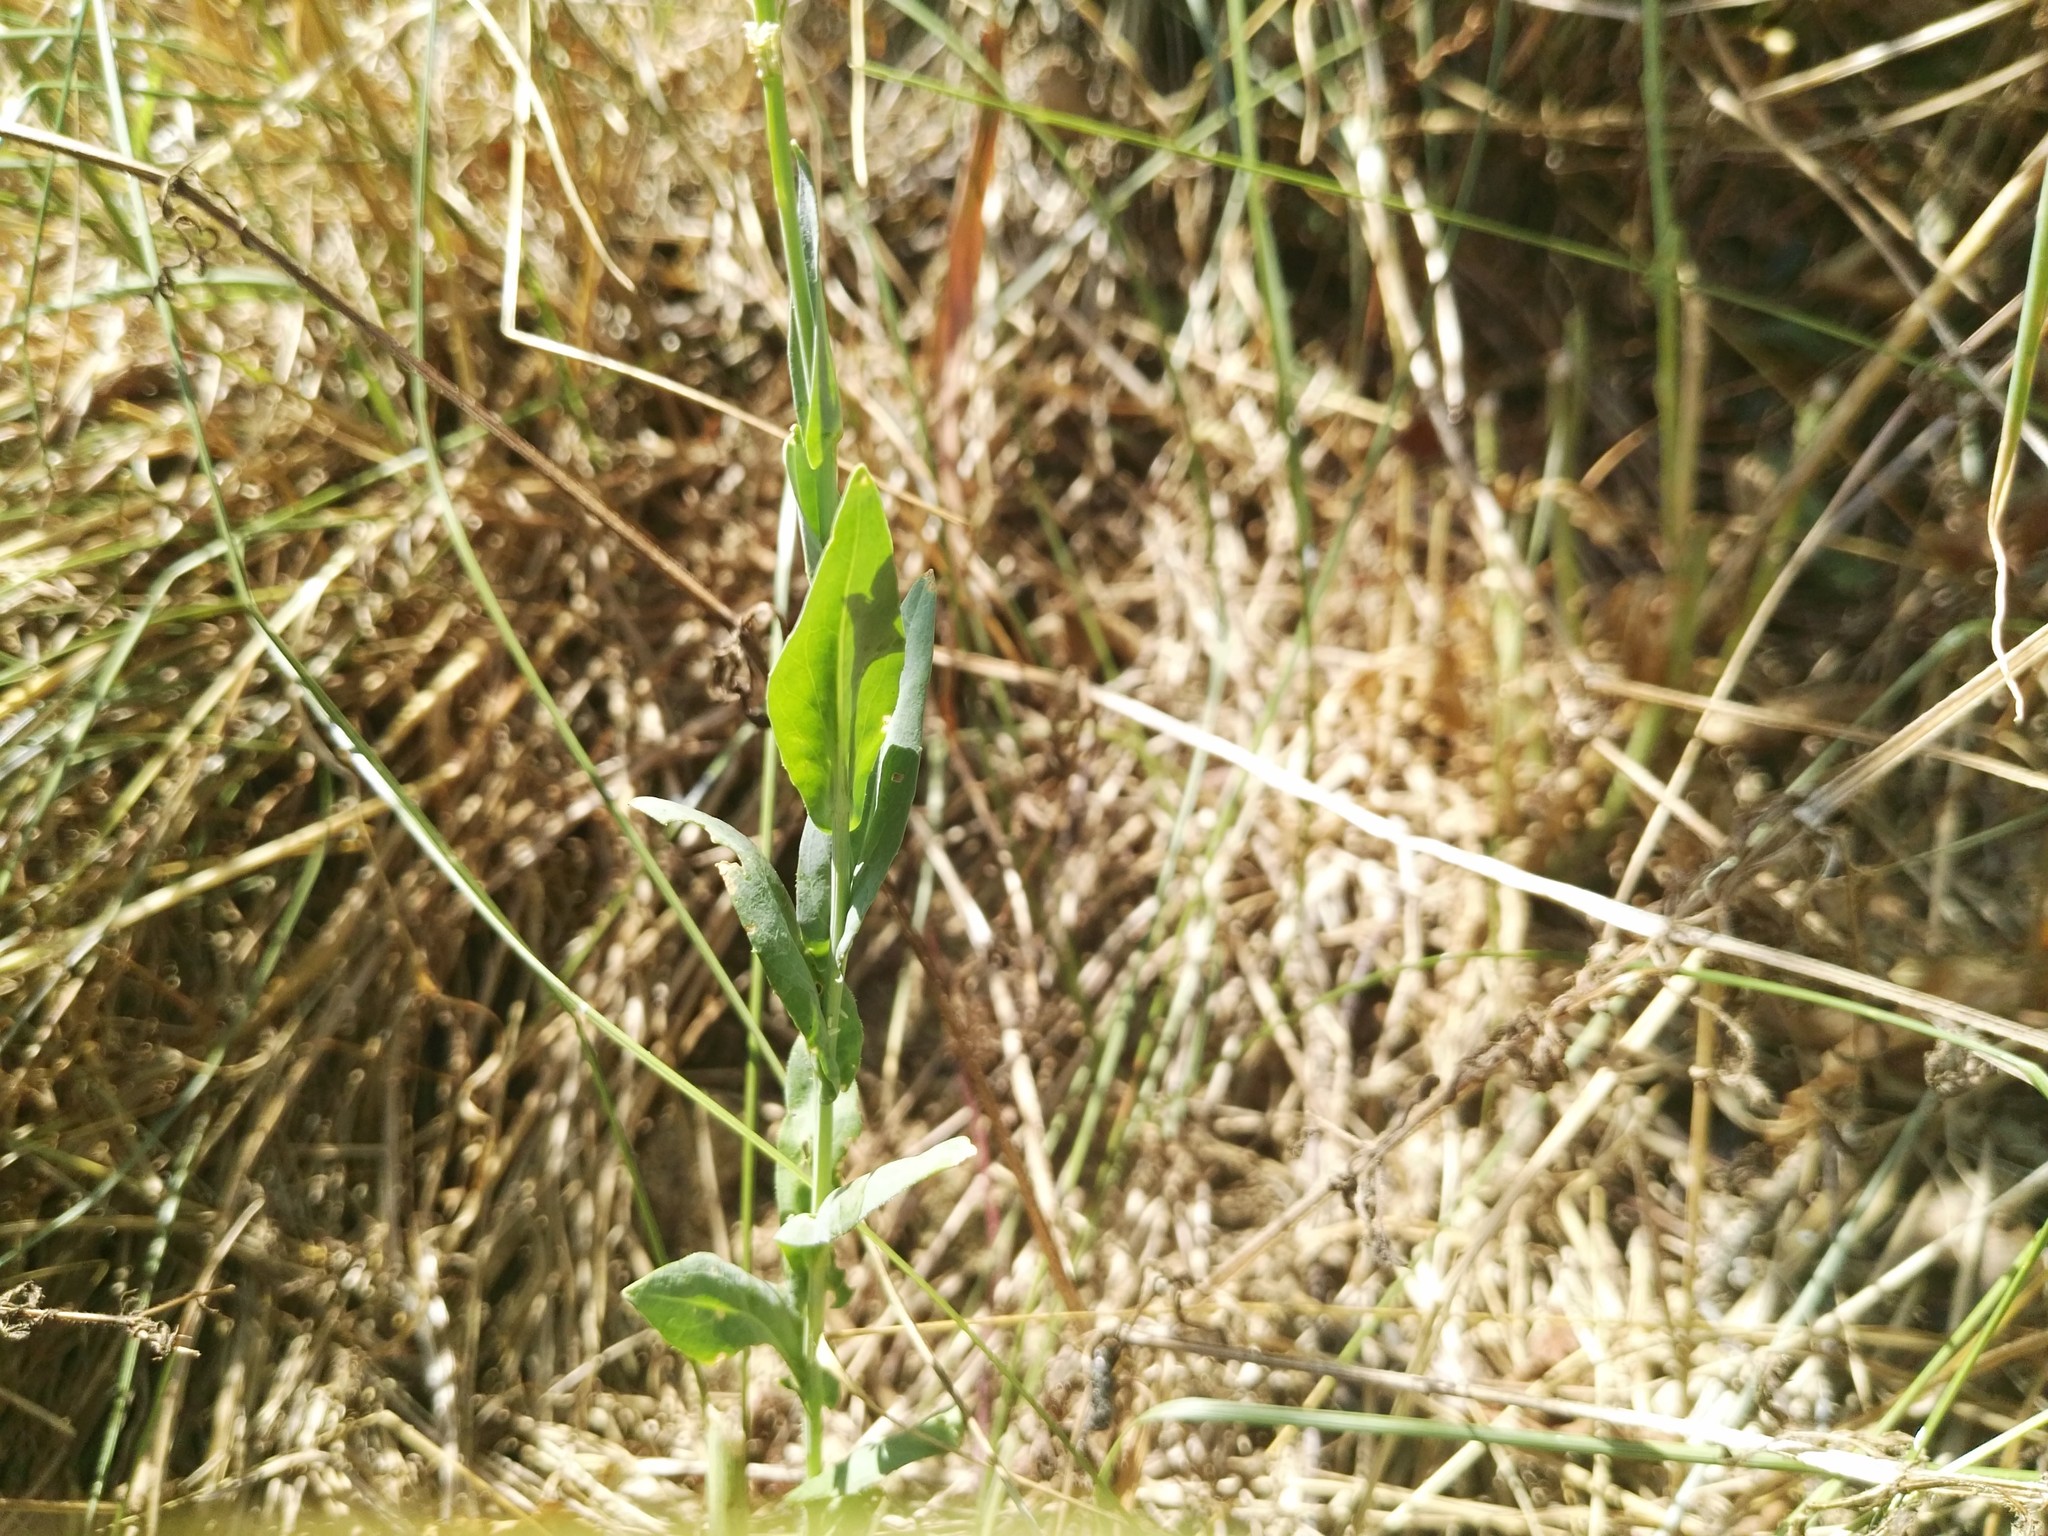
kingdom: Animalia
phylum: Arthropoda
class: Insecta
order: Lepidoptera
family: Pieridae
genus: Pieris
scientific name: Pieris rapae
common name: Small white
